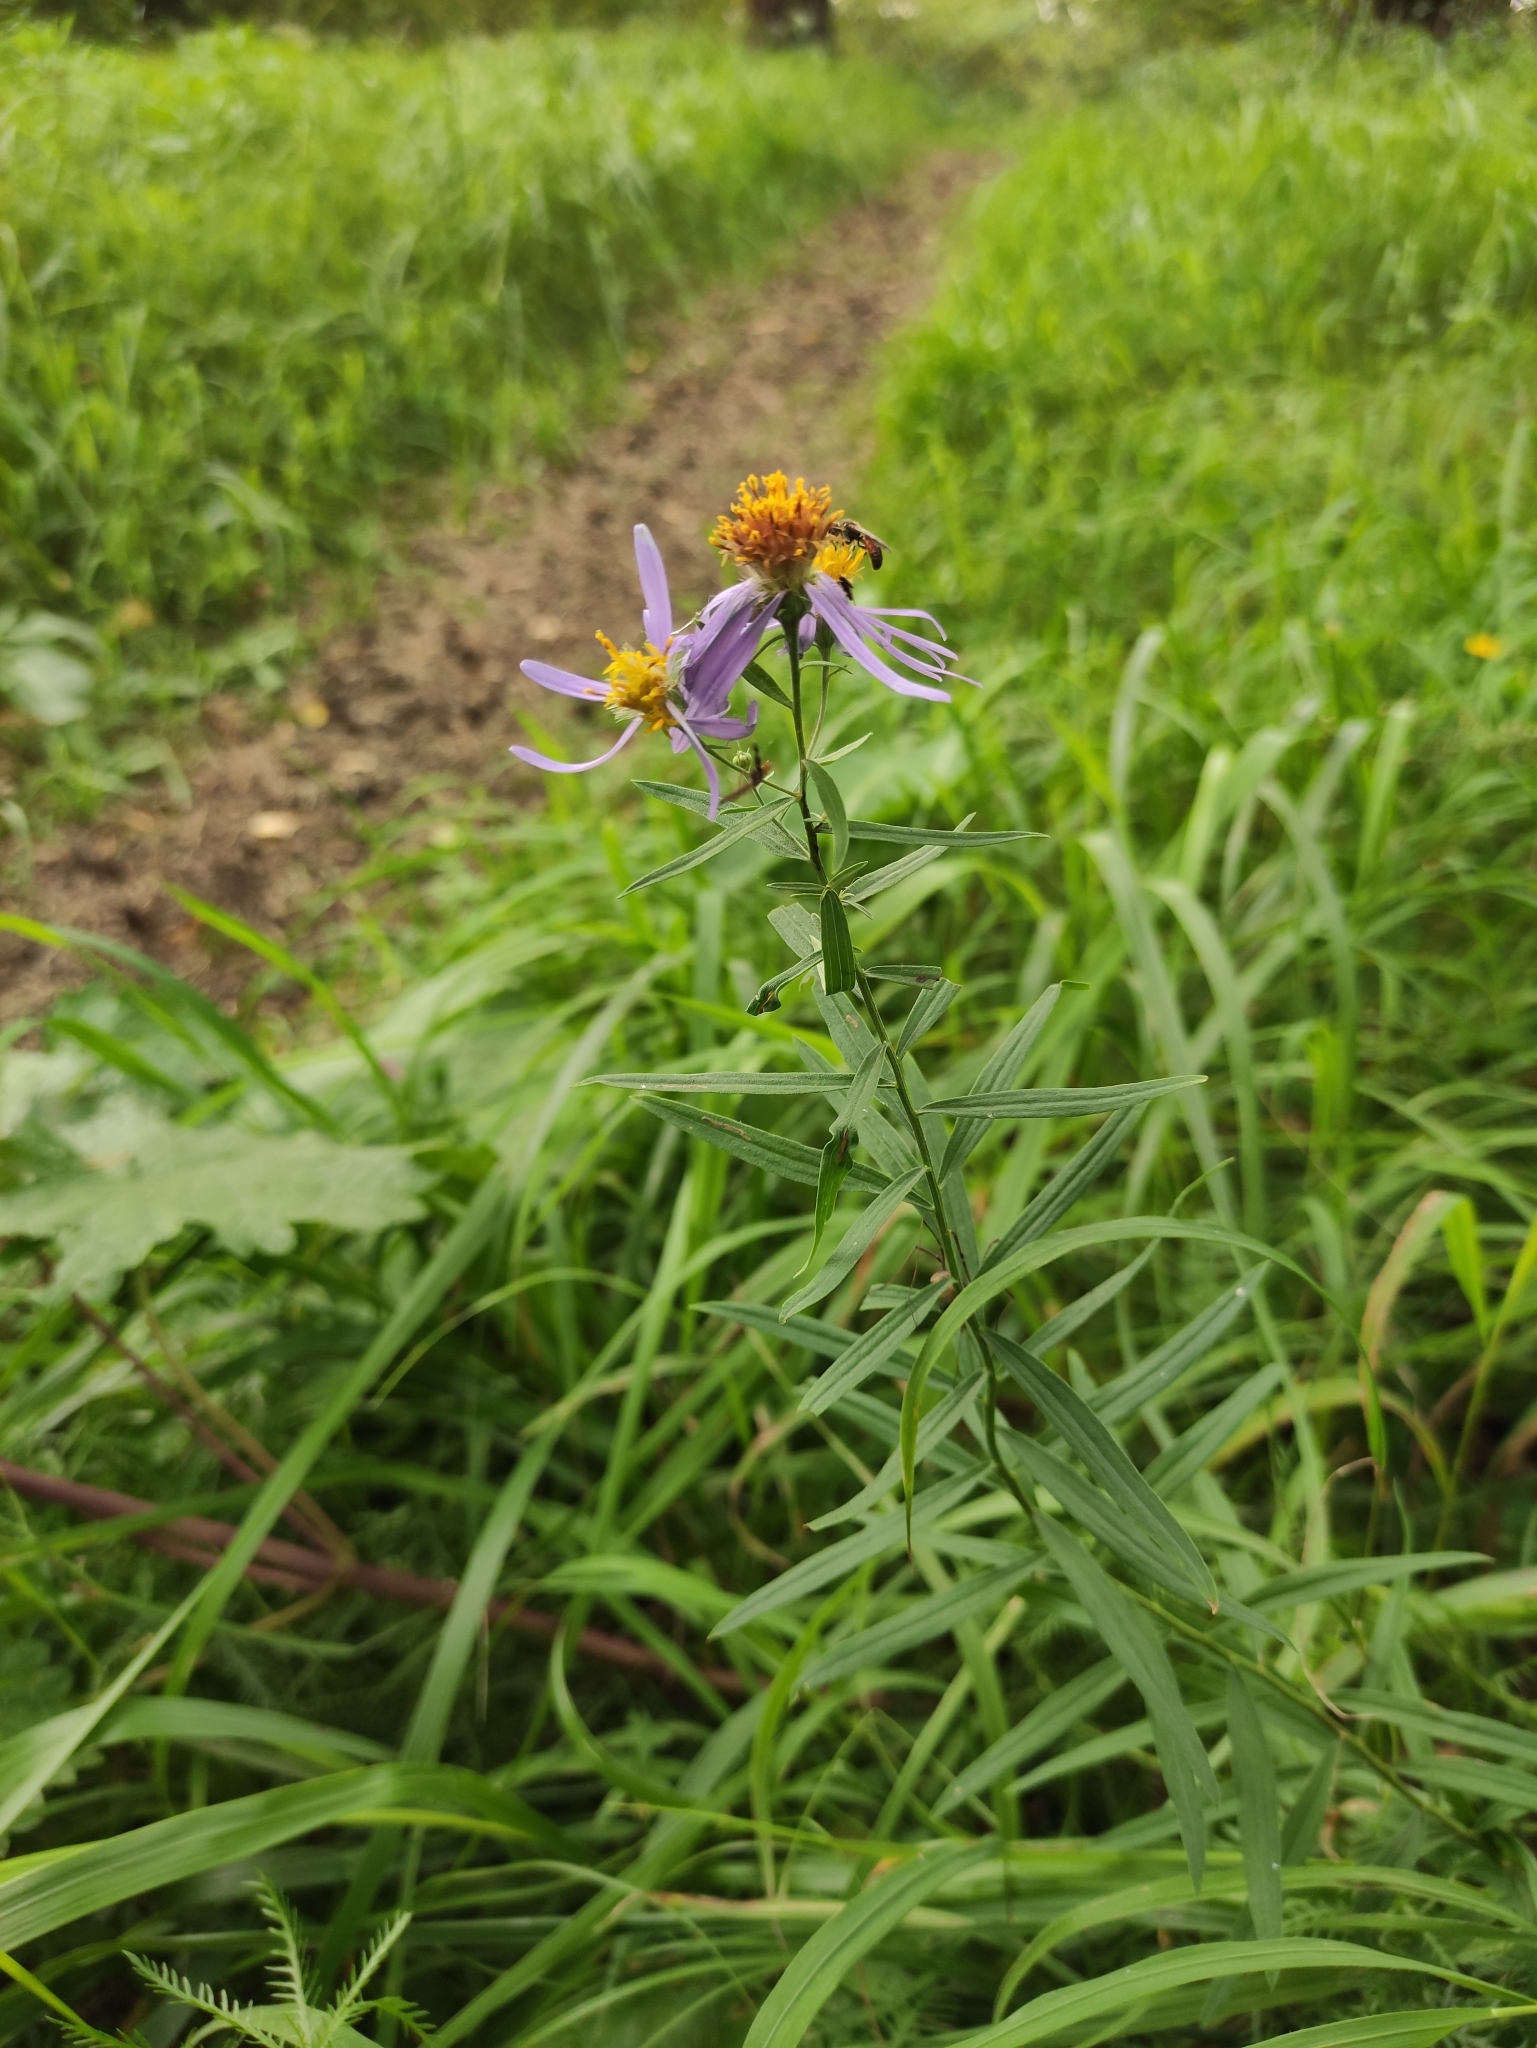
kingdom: Plantae
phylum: Tracheophyta
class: Magnoliopsida
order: Asterales
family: Asteraceae
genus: Galatella
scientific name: Galatella dahurica
